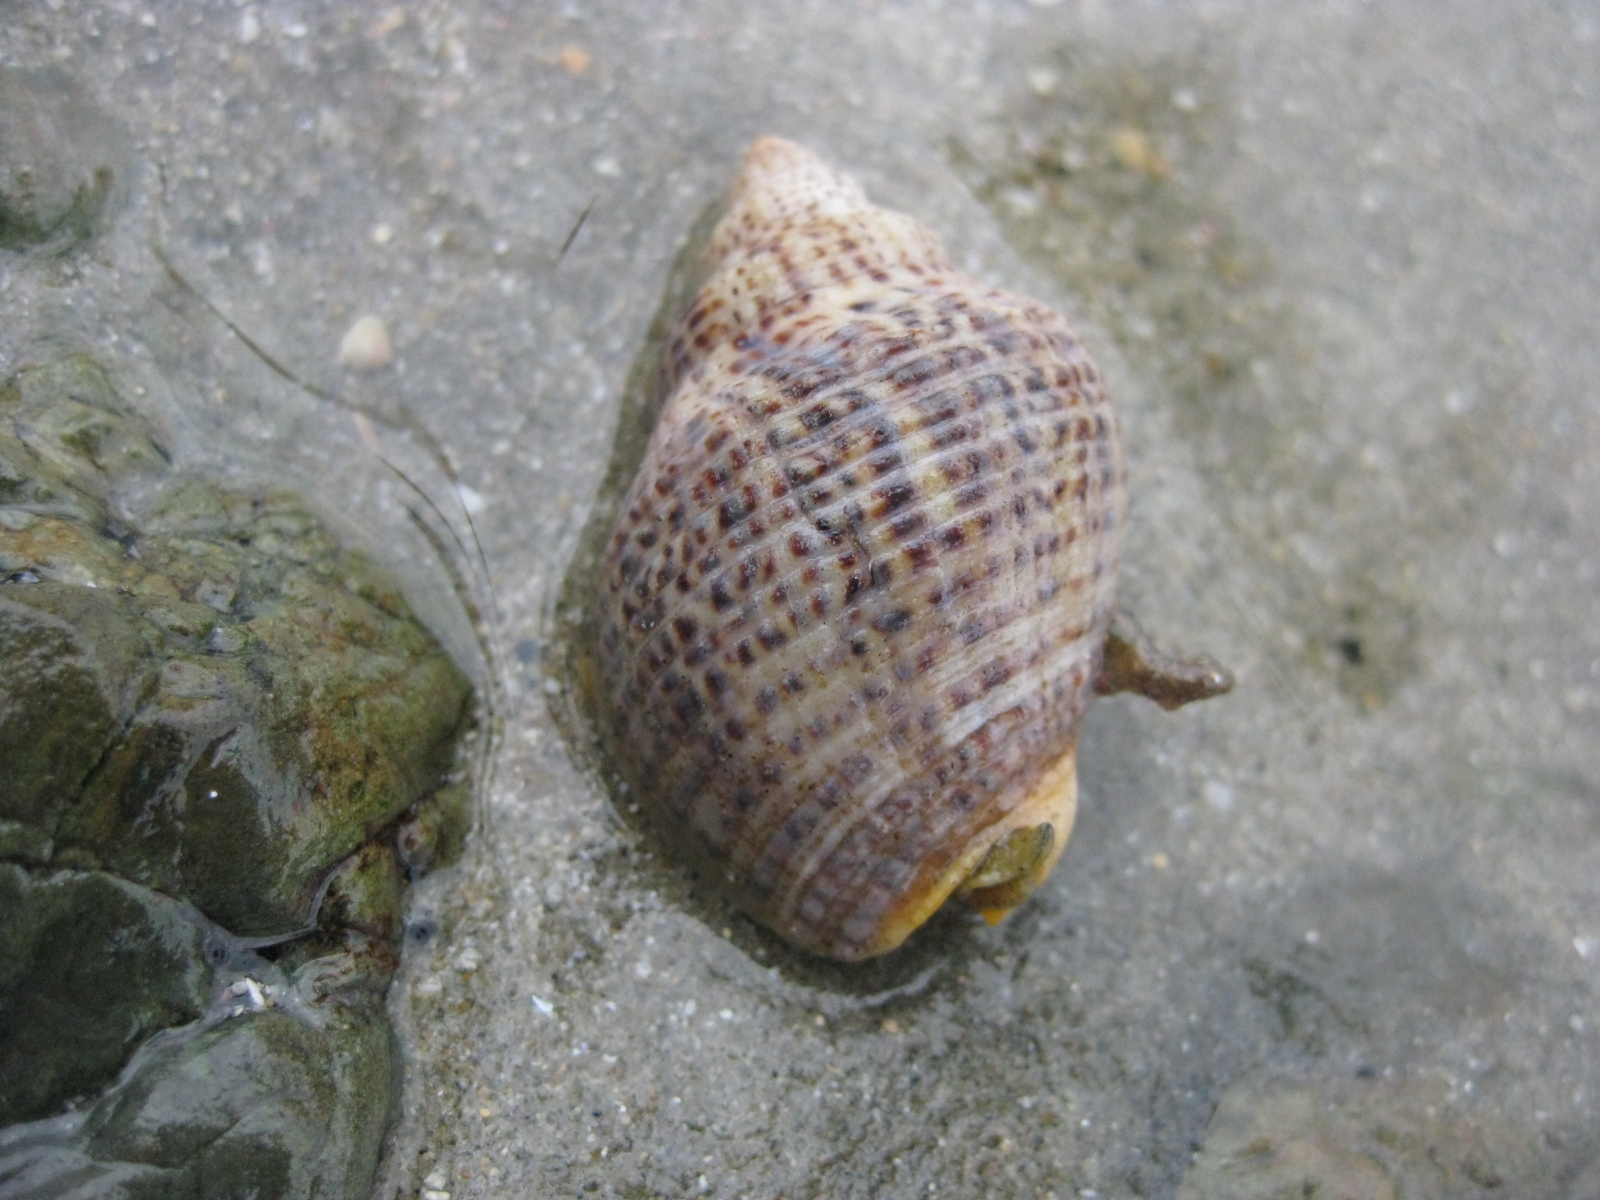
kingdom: Animalia
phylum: Mollusca
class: Gastropoda
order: Neogastropoda
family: Cominellidae
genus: Cominella
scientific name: Cominella adspersa
